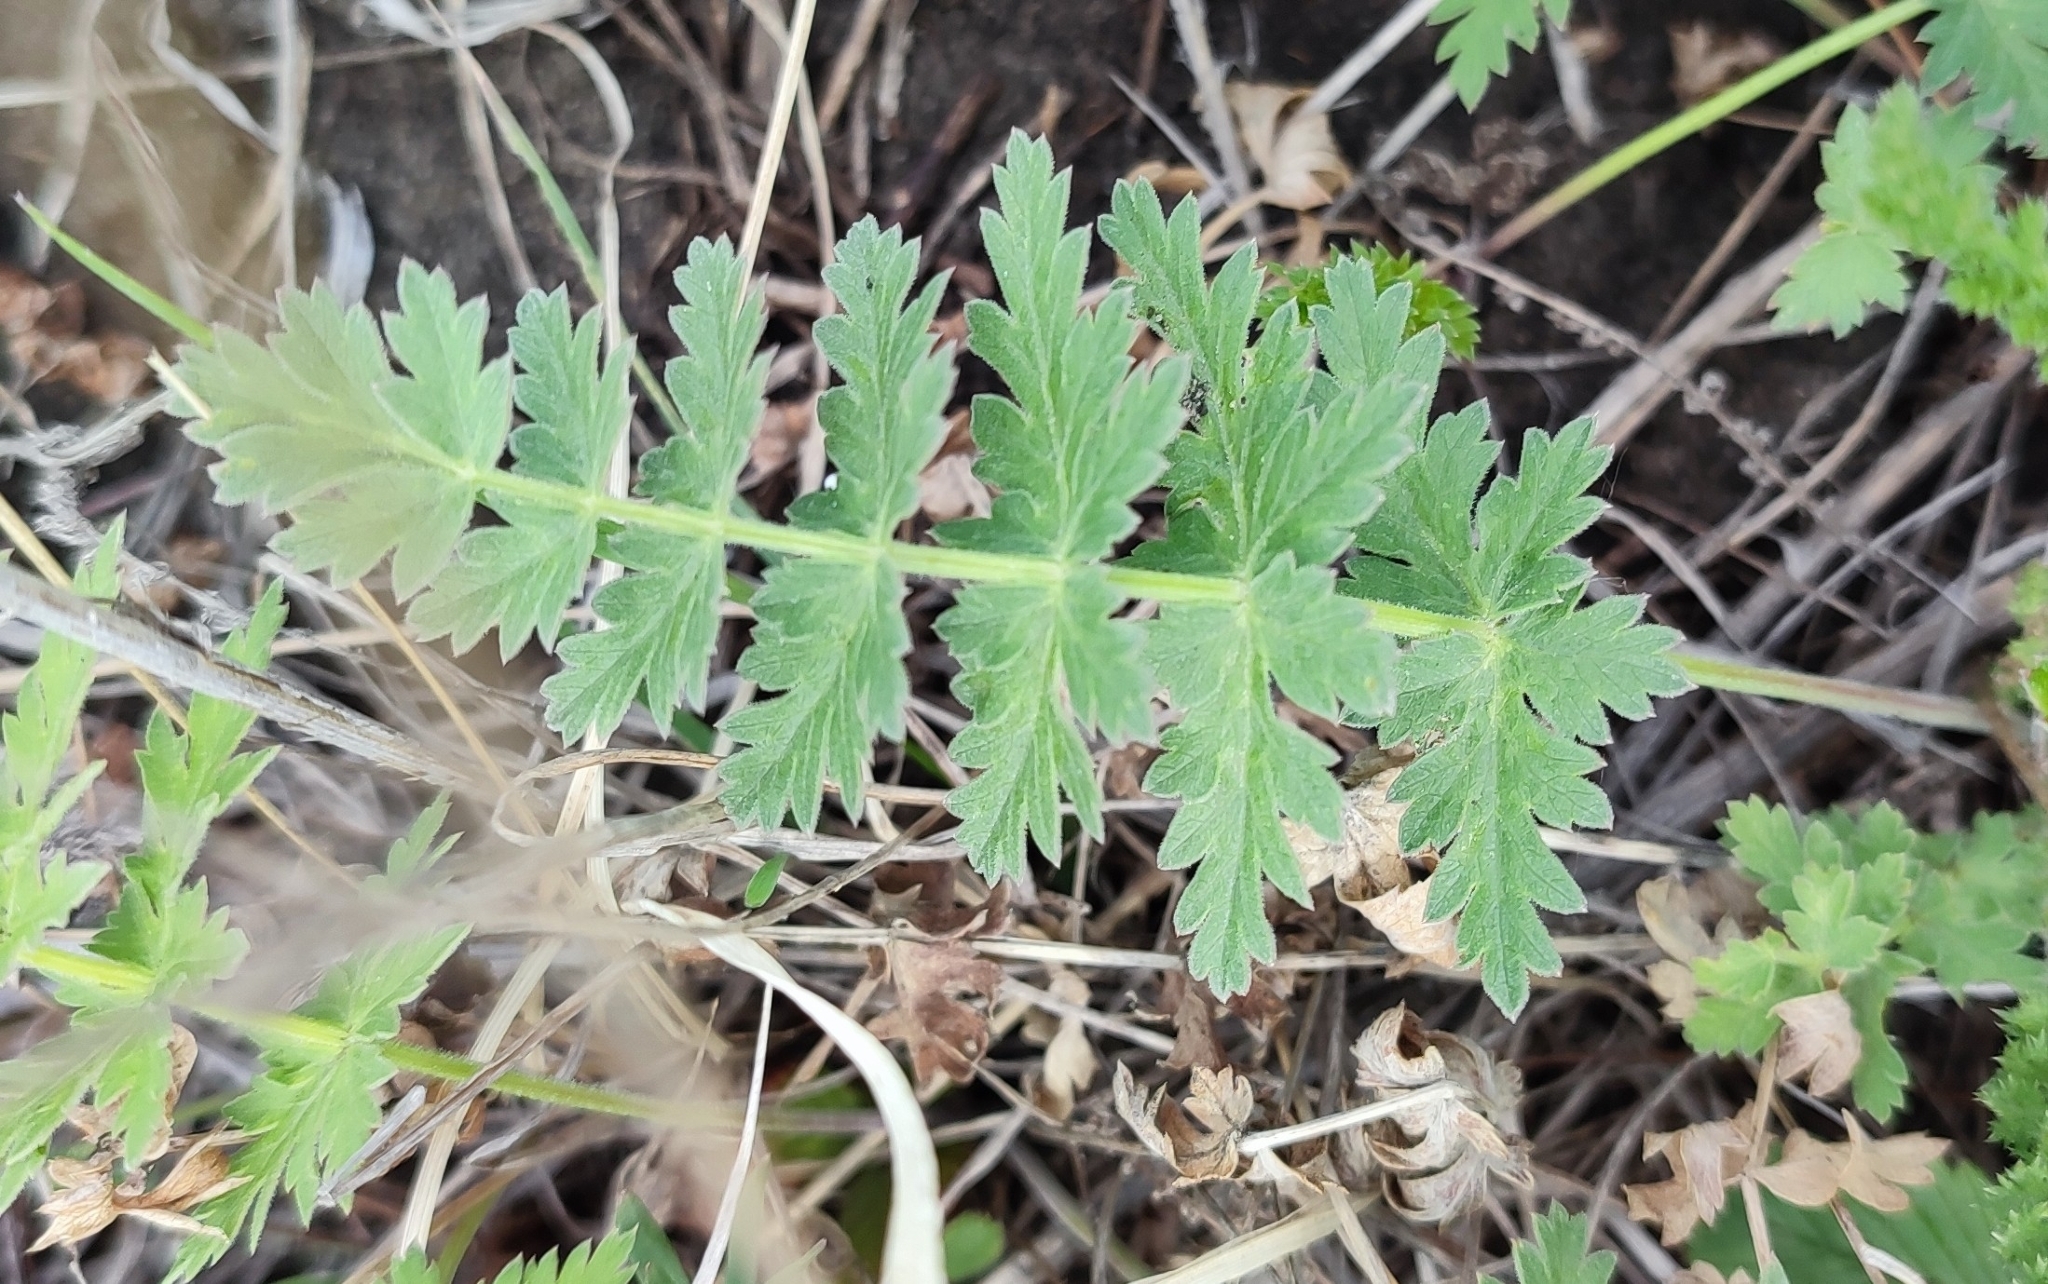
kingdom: Plantae
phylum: Tracheophyta
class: Magnoliopsida
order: Apiales
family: Apiaceae
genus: Seseli
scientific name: Seseli libanotis
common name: Mooncarrot
